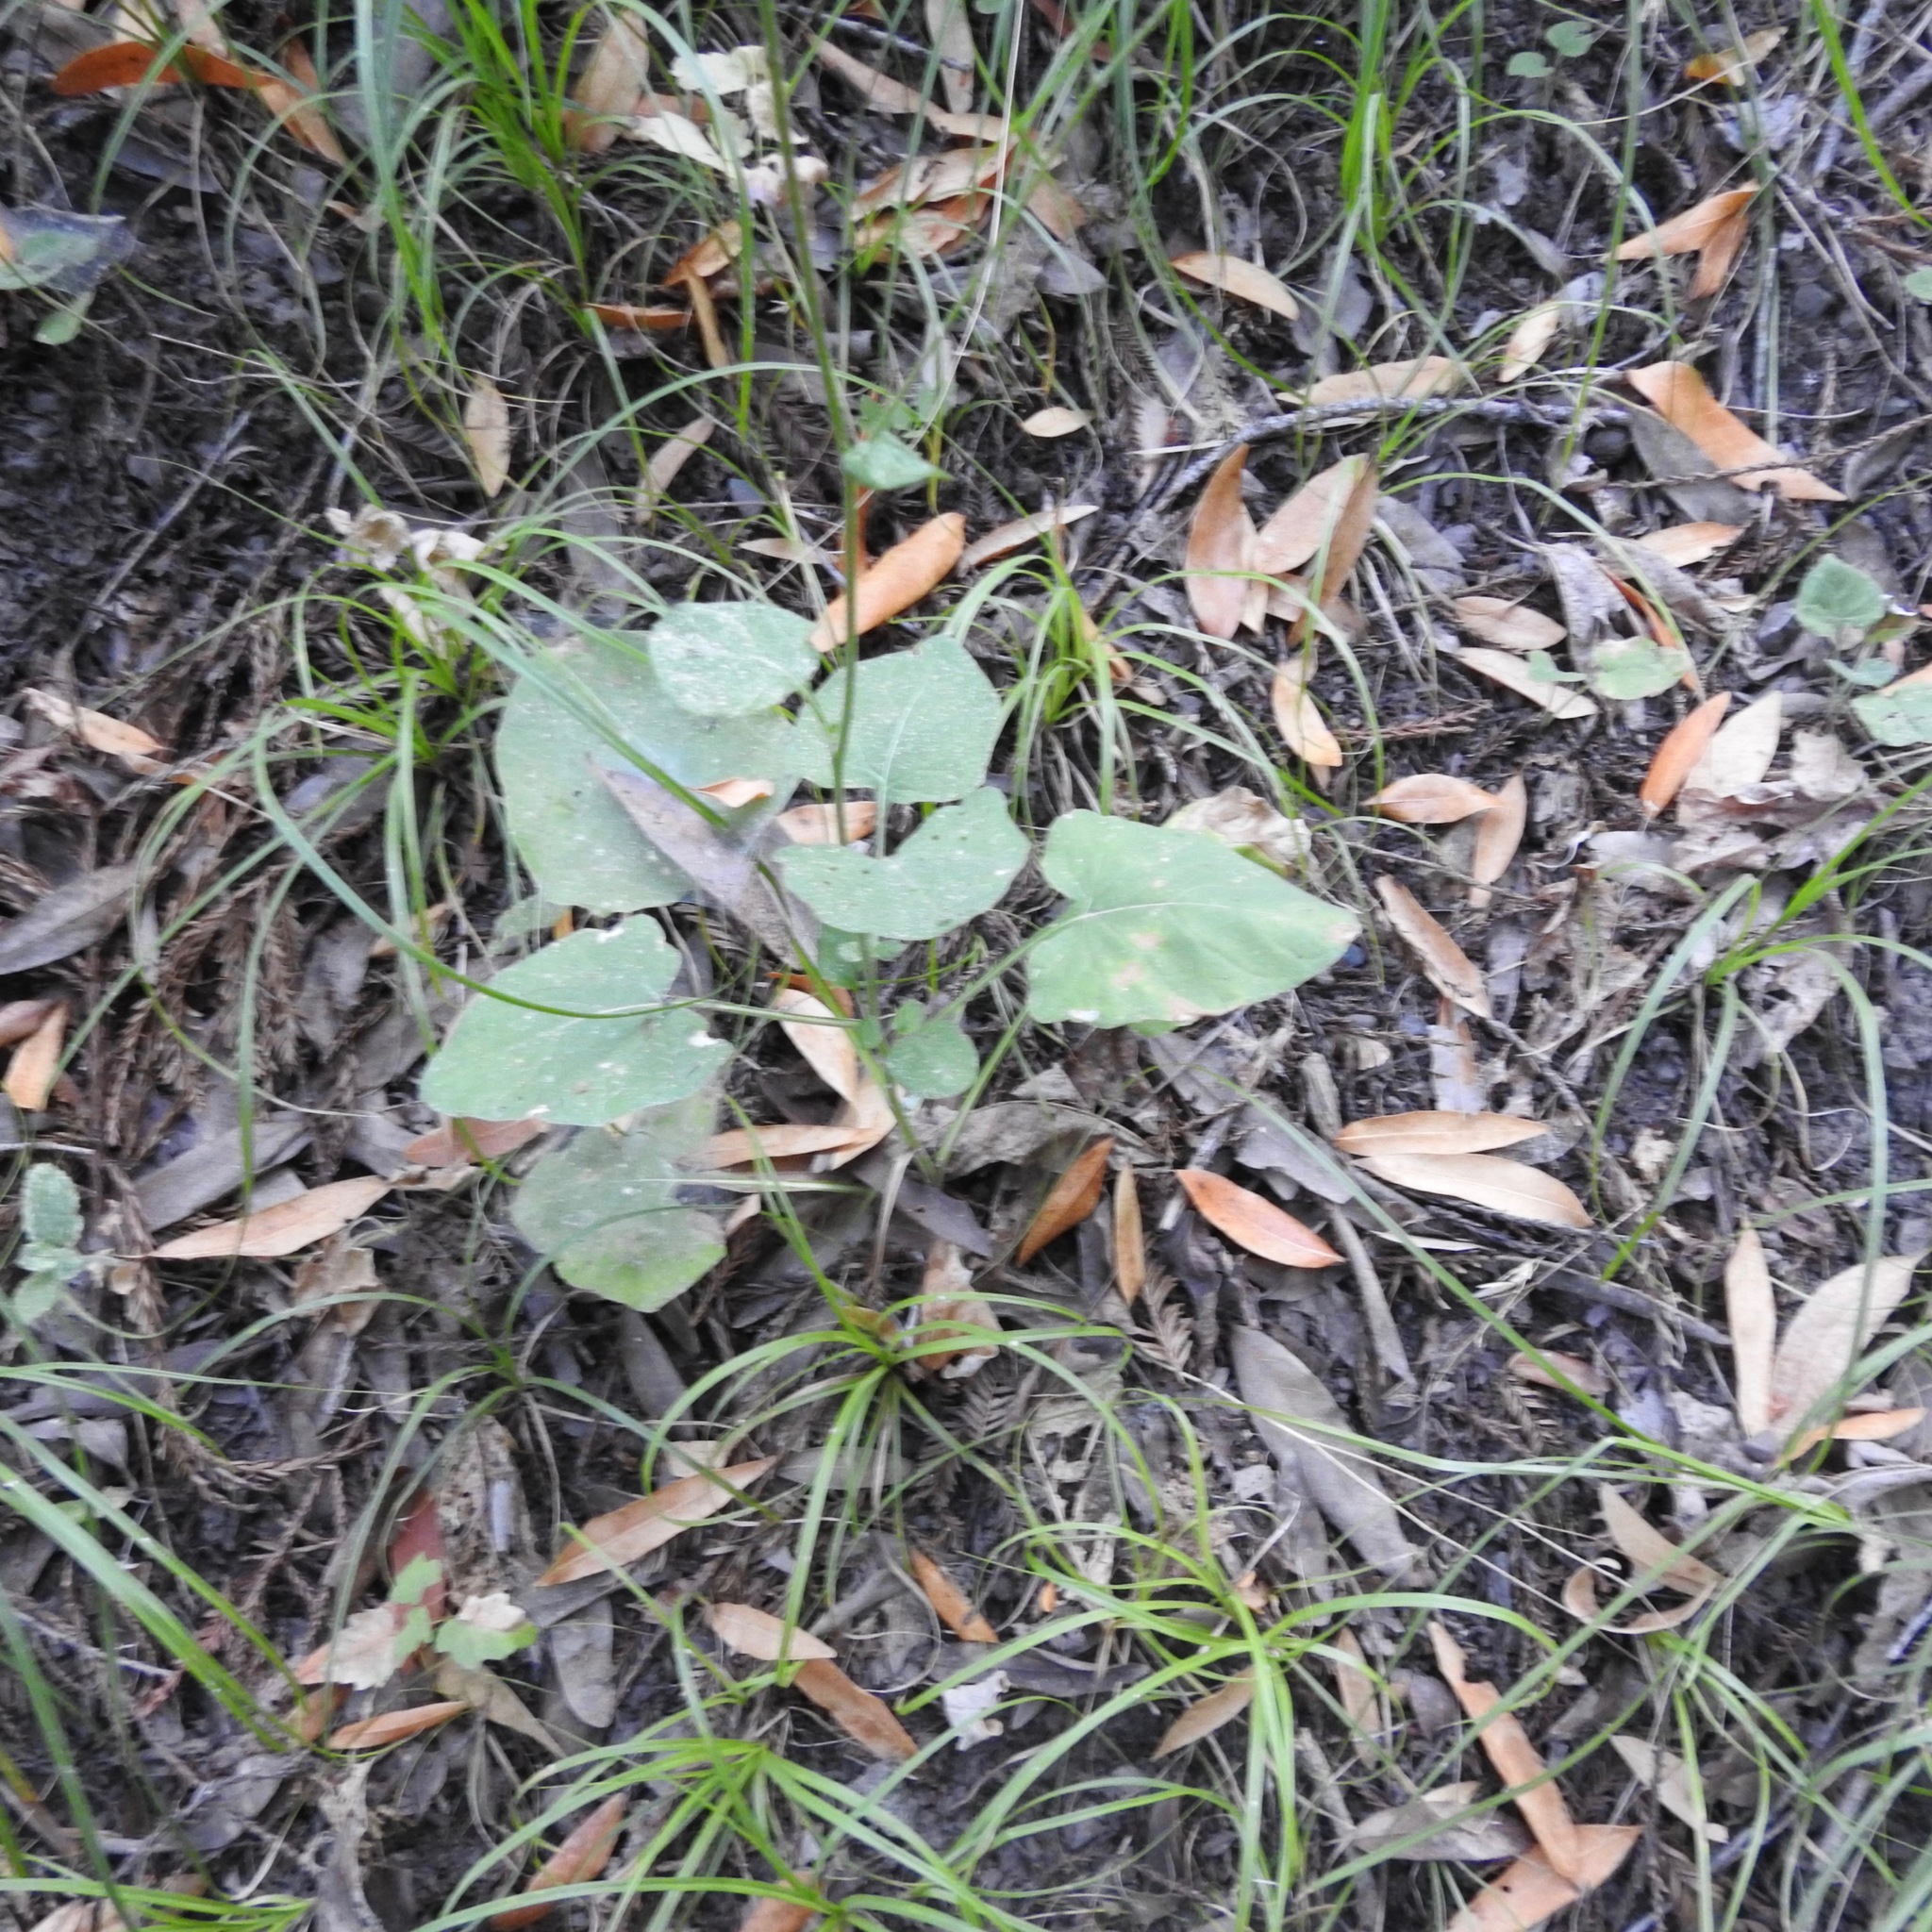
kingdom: Plantae
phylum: Tracheophyta
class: Magnoliopsida
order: Asterales
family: Asteraceae
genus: Adenocaulon
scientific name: Adenocaulon bicolor
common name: Trailplant
